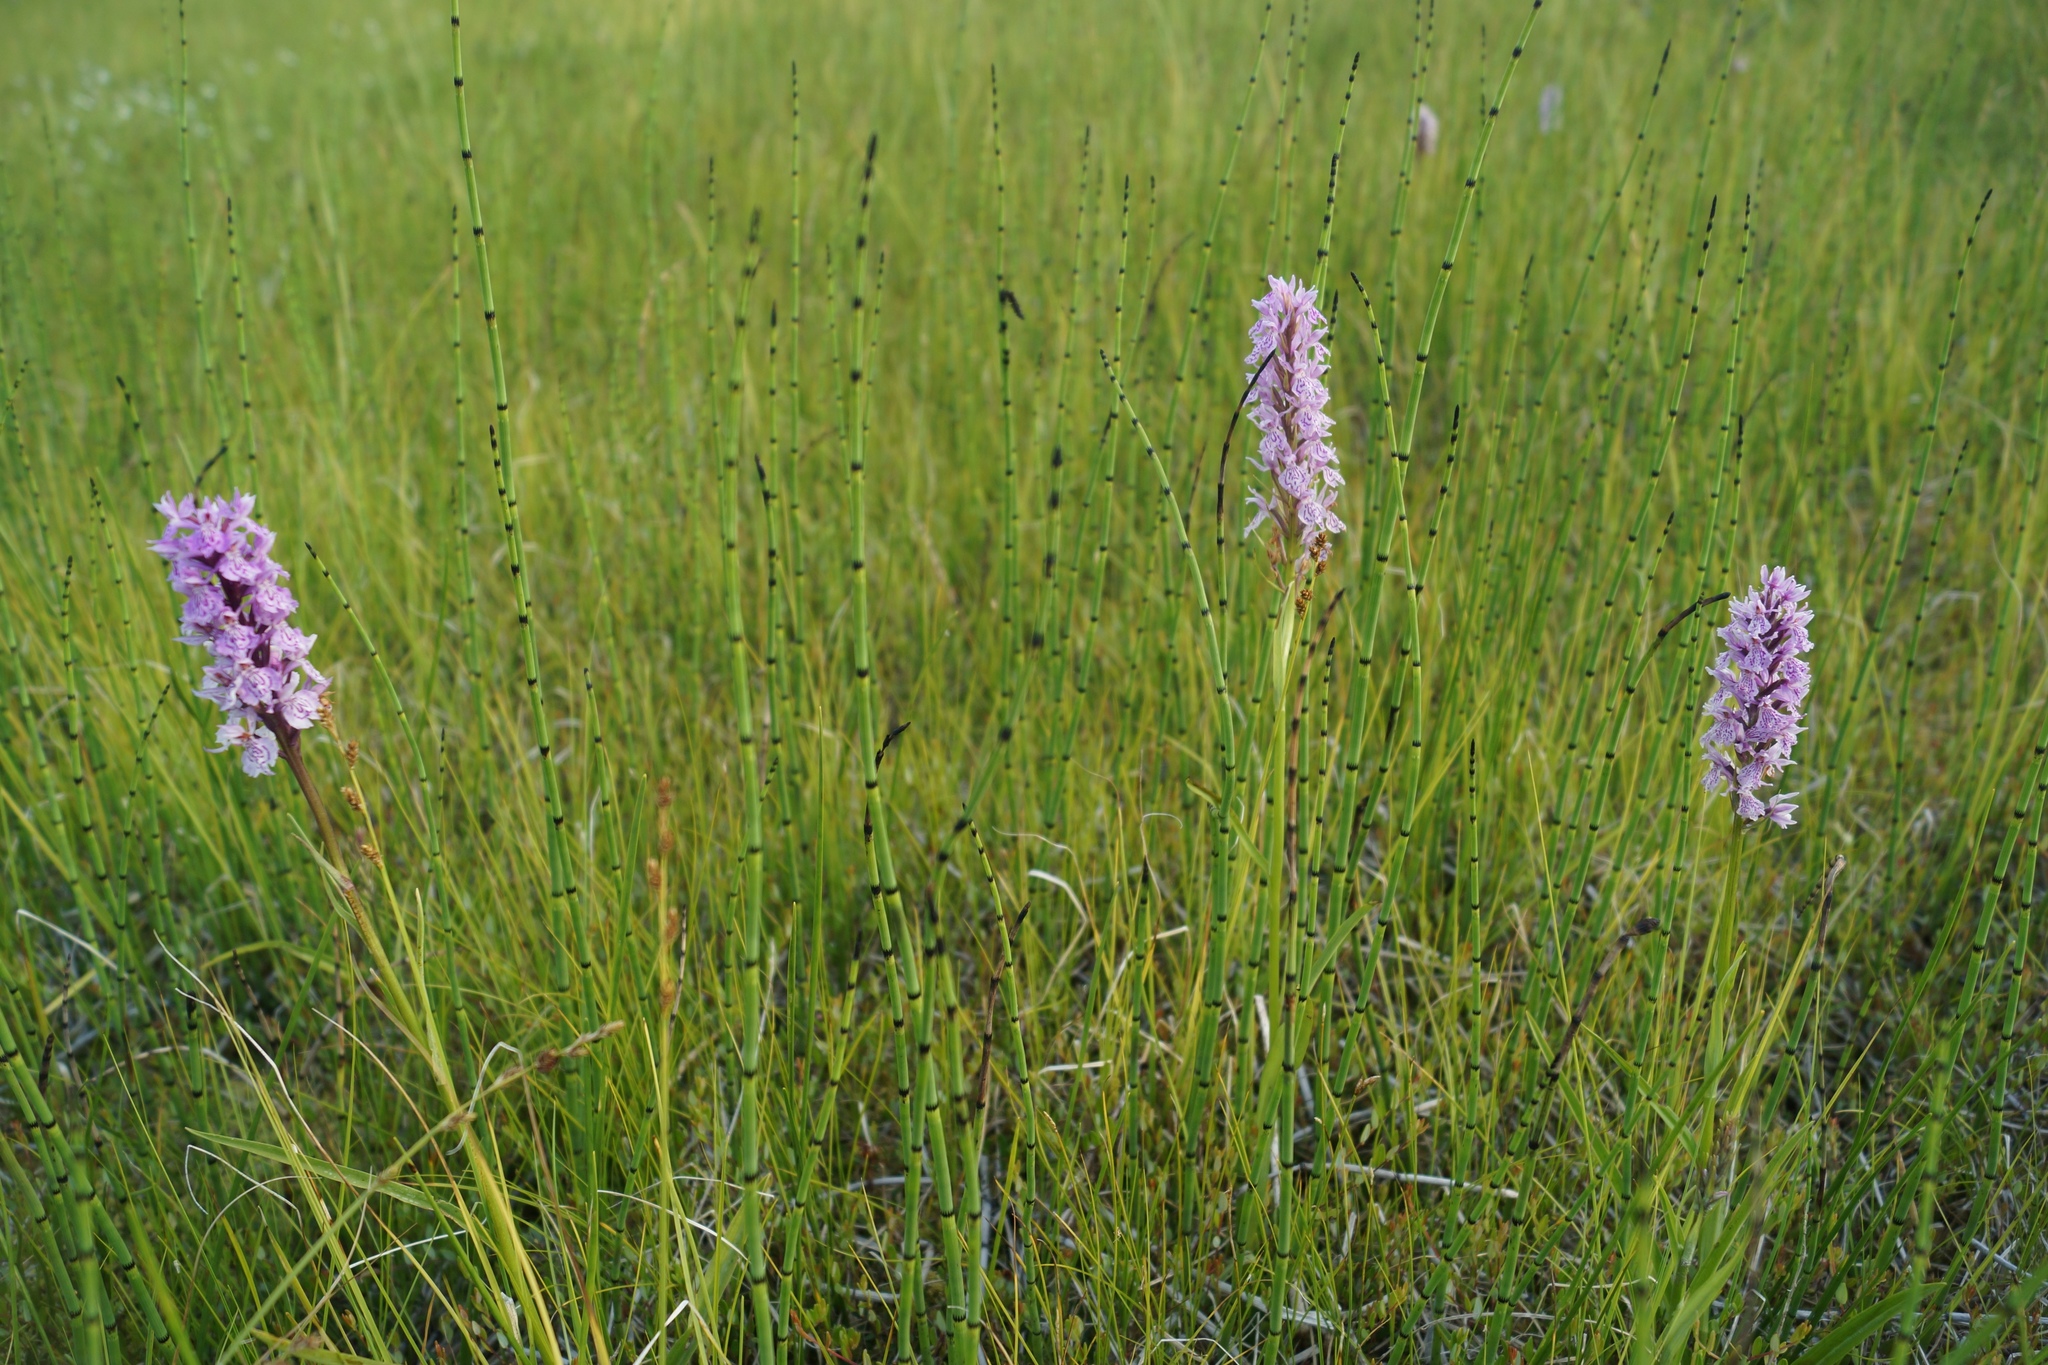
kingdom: Plantae
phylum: Tracheophyta
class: Liliopsida
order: Asparagales
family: Orchidaceae
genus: Dactylorhiza
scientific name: Dactylorhiza maculata
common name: Heath spotted-orchid
